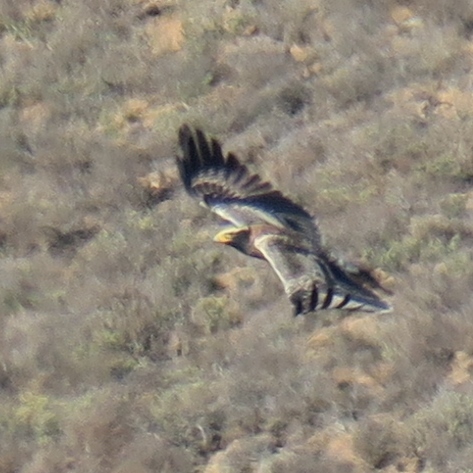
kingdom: Animalia
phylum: Chordata
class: Aves
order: Accipitriformes
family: Accipitridae
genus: Aquila
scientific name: Aquila verreauxii
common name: Verreaux's eagle
